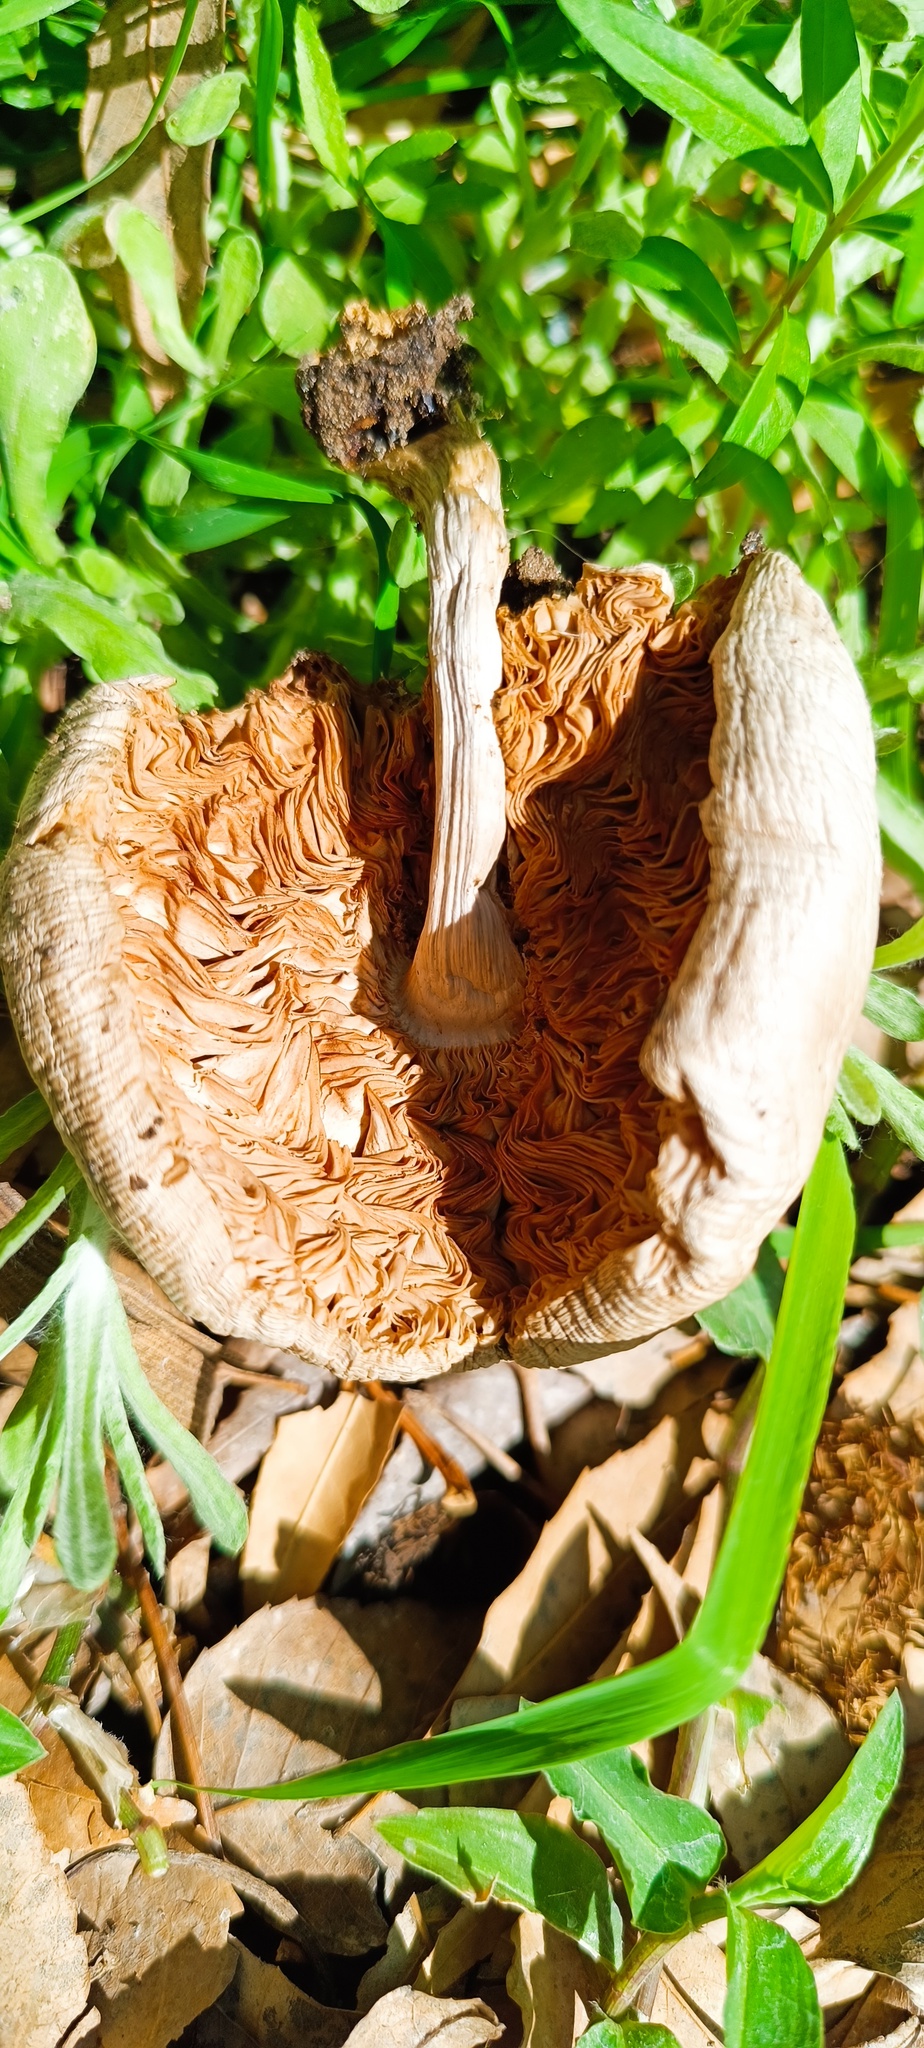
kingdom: Fungi
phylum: Basidiomycota
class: Agaricomycetes
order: Agaricales
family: Pluteaceae
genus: Volvopluteus
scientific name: Volvopluteus gloiocephalus
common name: Stubble rosegill
